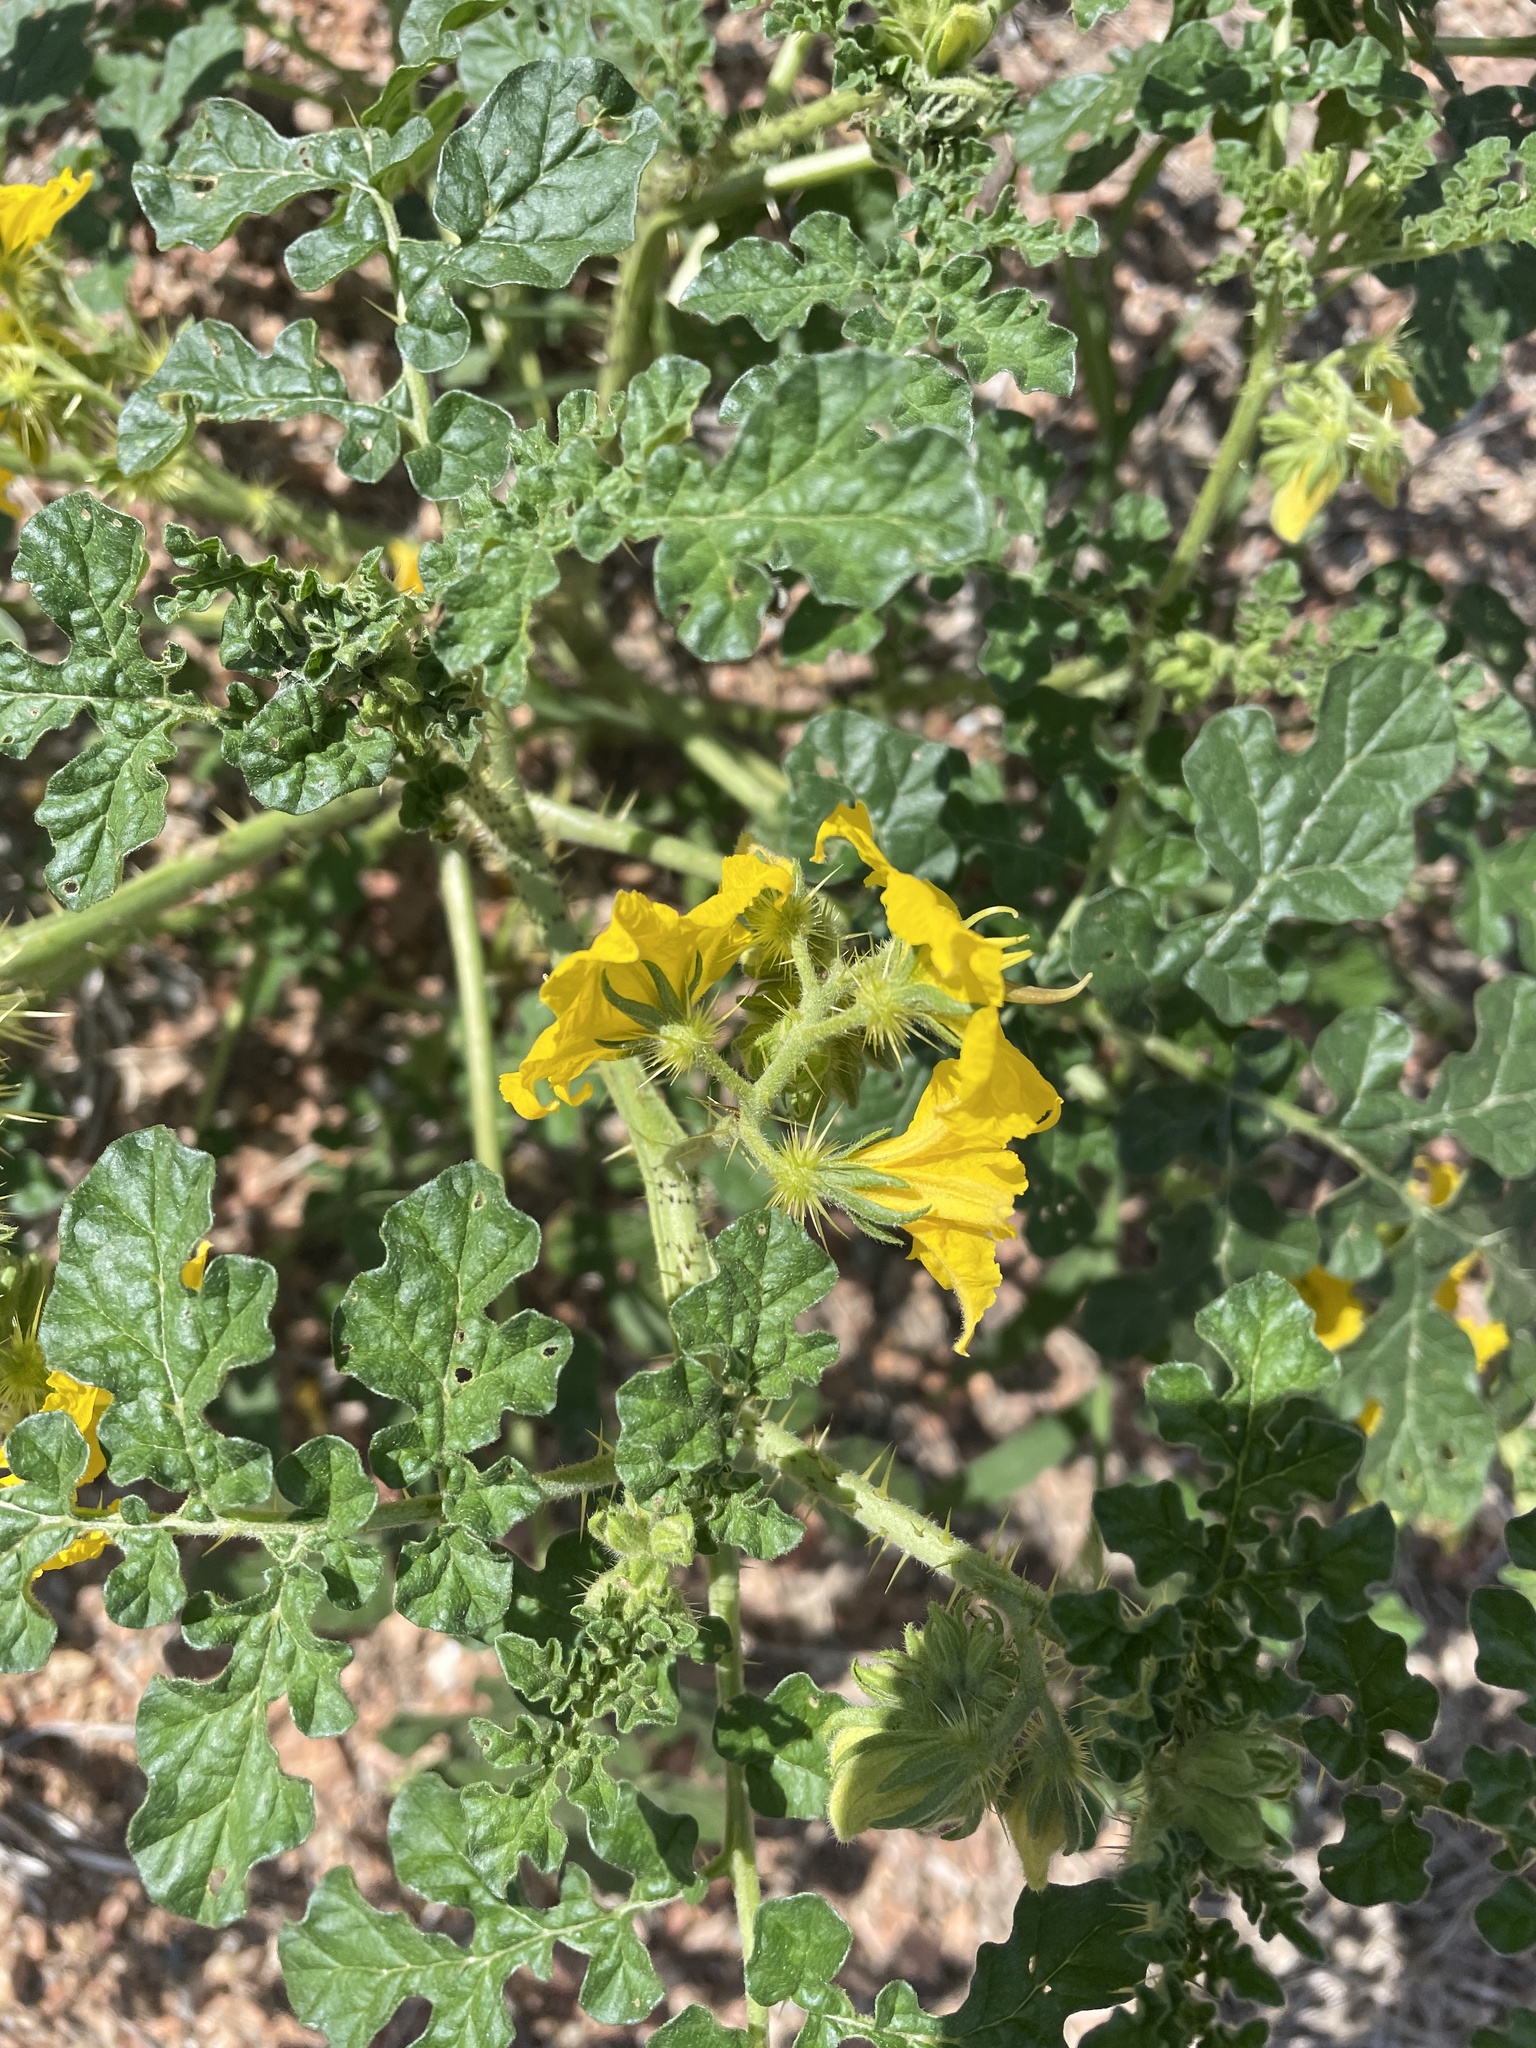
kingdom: Plantae
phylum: Tracheophyta
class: Magnoliopsida
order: Solanales
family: Solanaceae
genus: Solanum
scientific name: Solanum angustifolium
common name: Buffalobur nightshade
